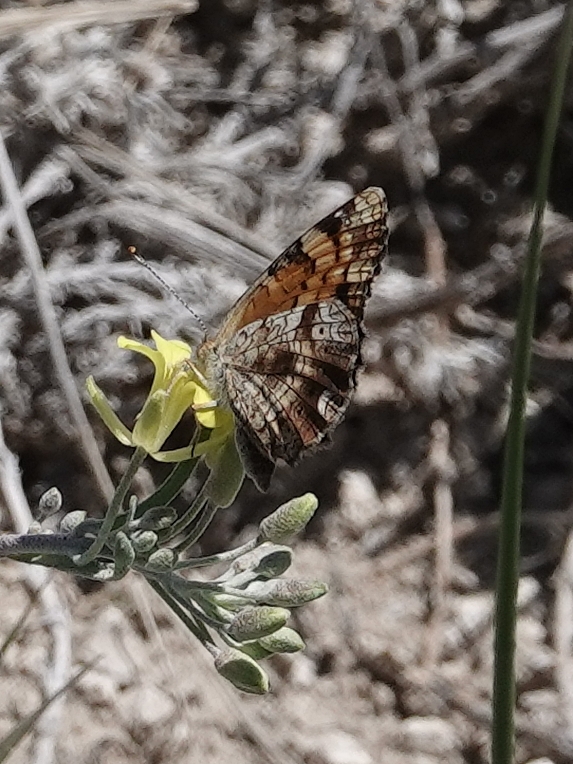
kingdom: Animalia
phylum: Arthropoda
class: Insecta
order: Lepidoptera
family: Nymphalidae
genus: Phyciodes
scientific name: Phyciodes tharos
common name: Pearl crescent
